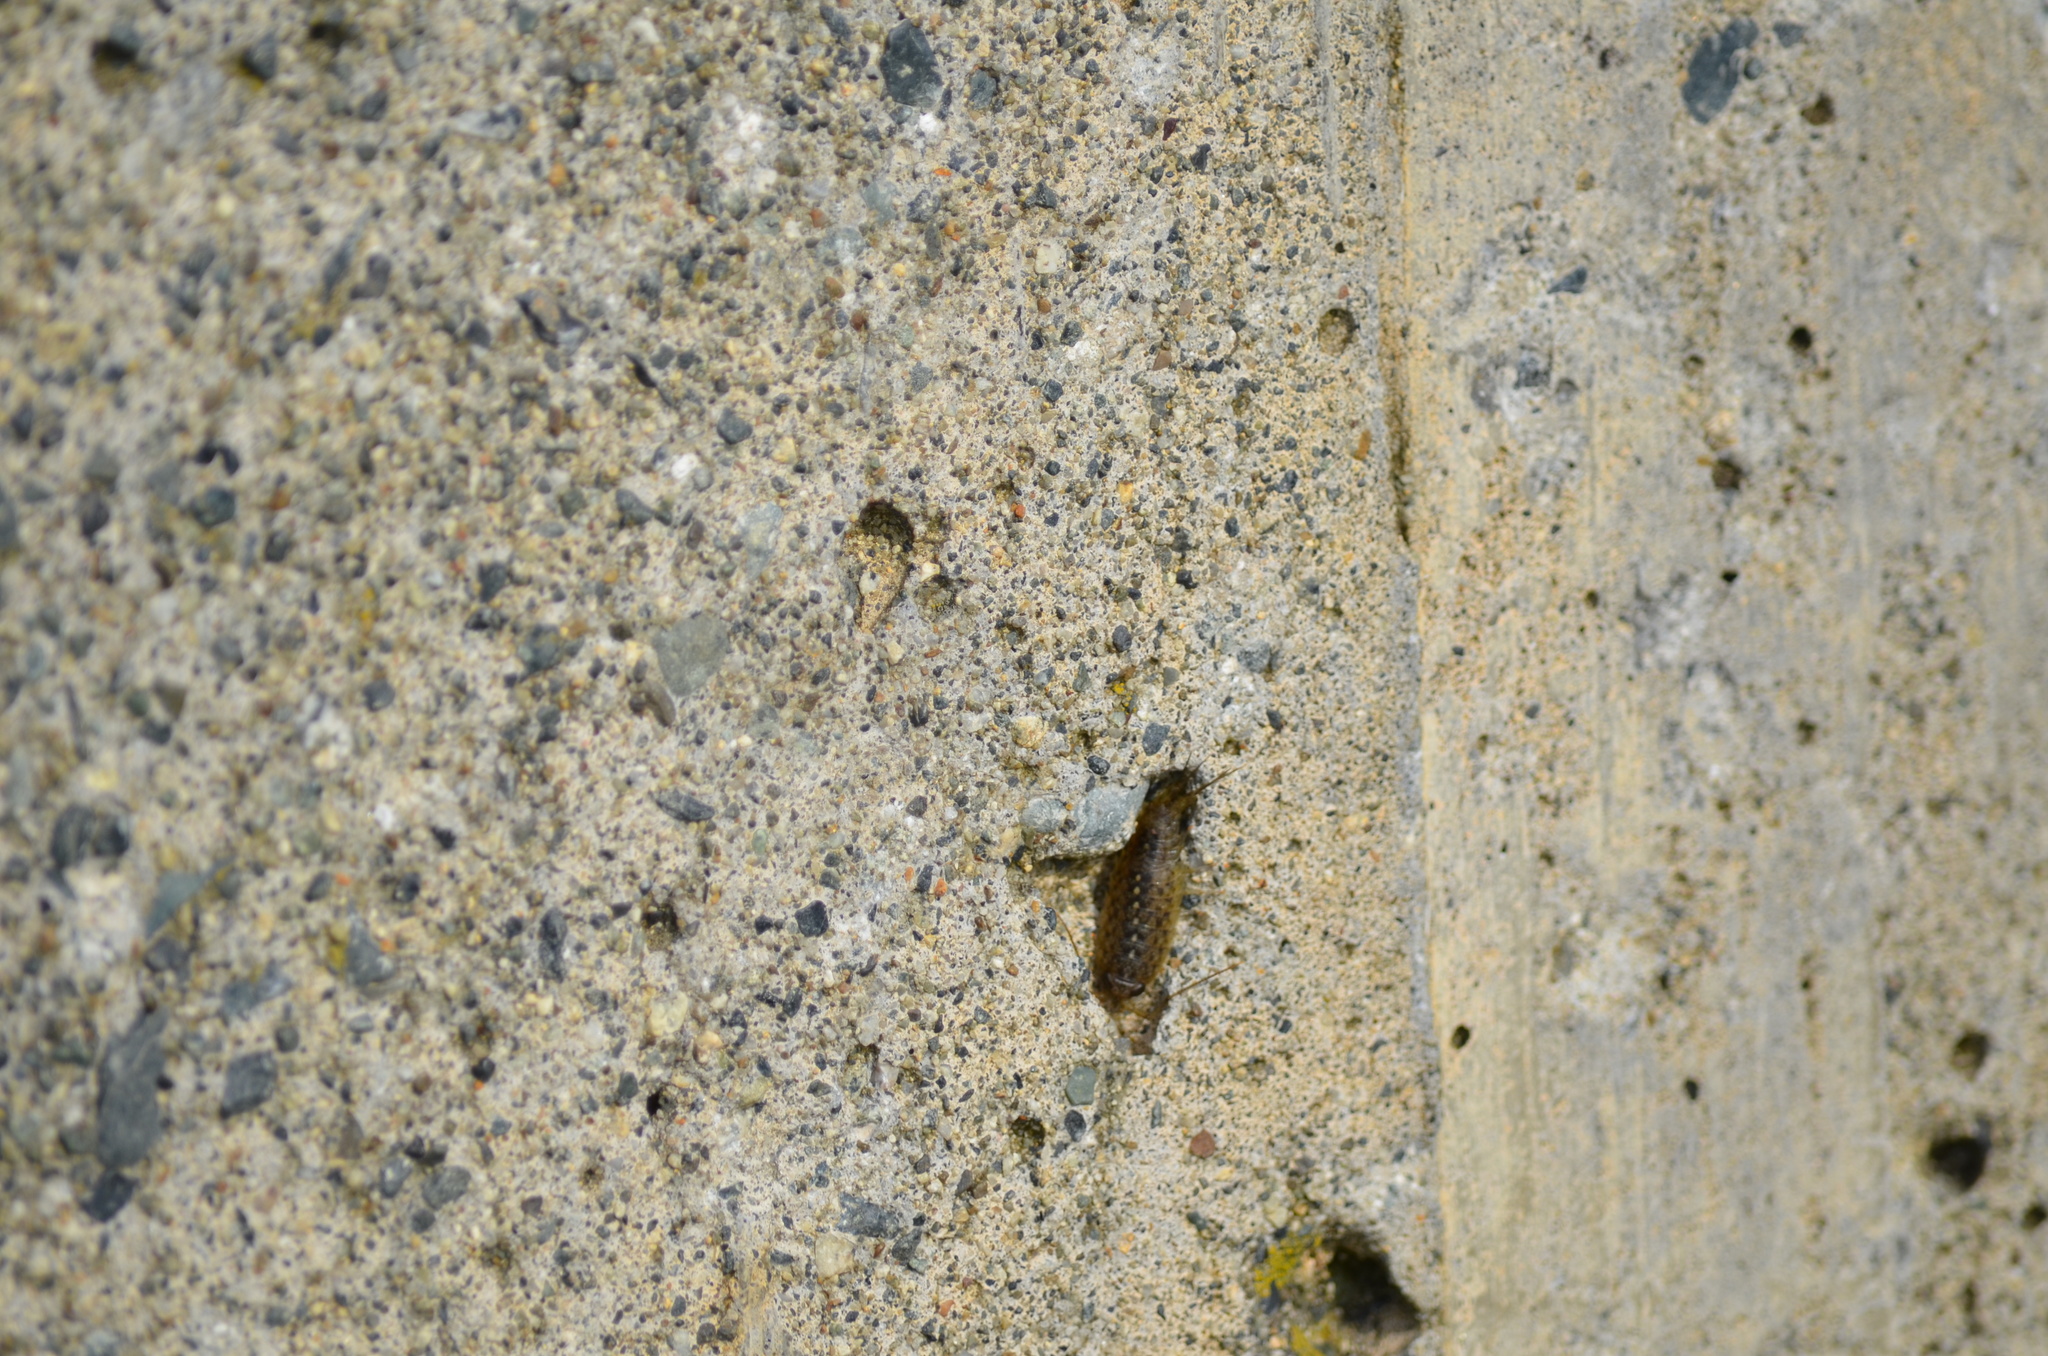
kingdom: Animalia
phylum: Arthropoda
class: Malacostraca
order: Isopoda
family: Ligiidae
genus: Ligia
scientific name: Ligia occidentalis
